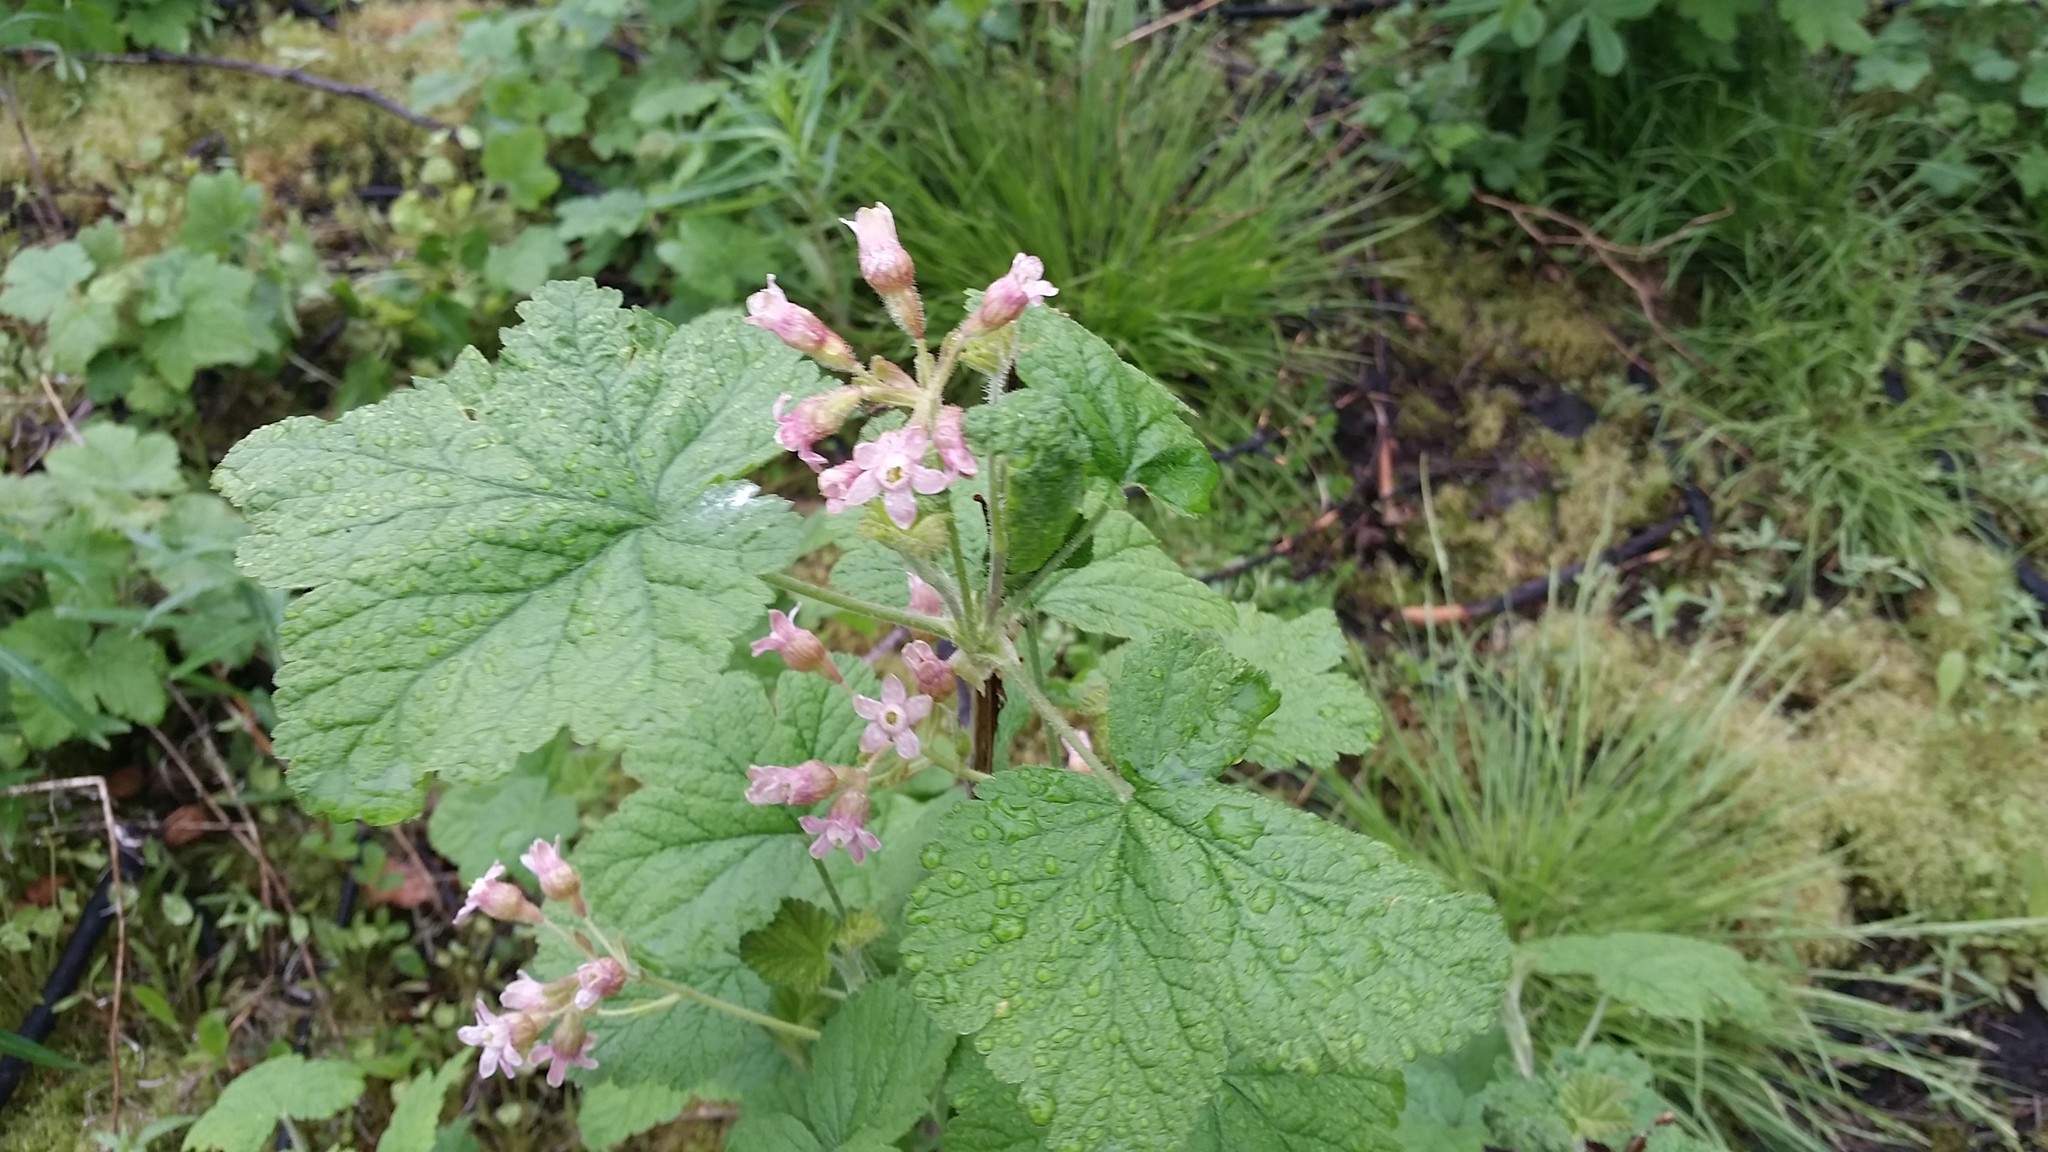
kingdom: Plantae
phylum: Tracheophyta
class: Magnoliopsida
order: Saxifragales
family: Grossulariaceae
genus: Ribes
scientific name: Ribes viscosissimum
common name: Sticky currant
